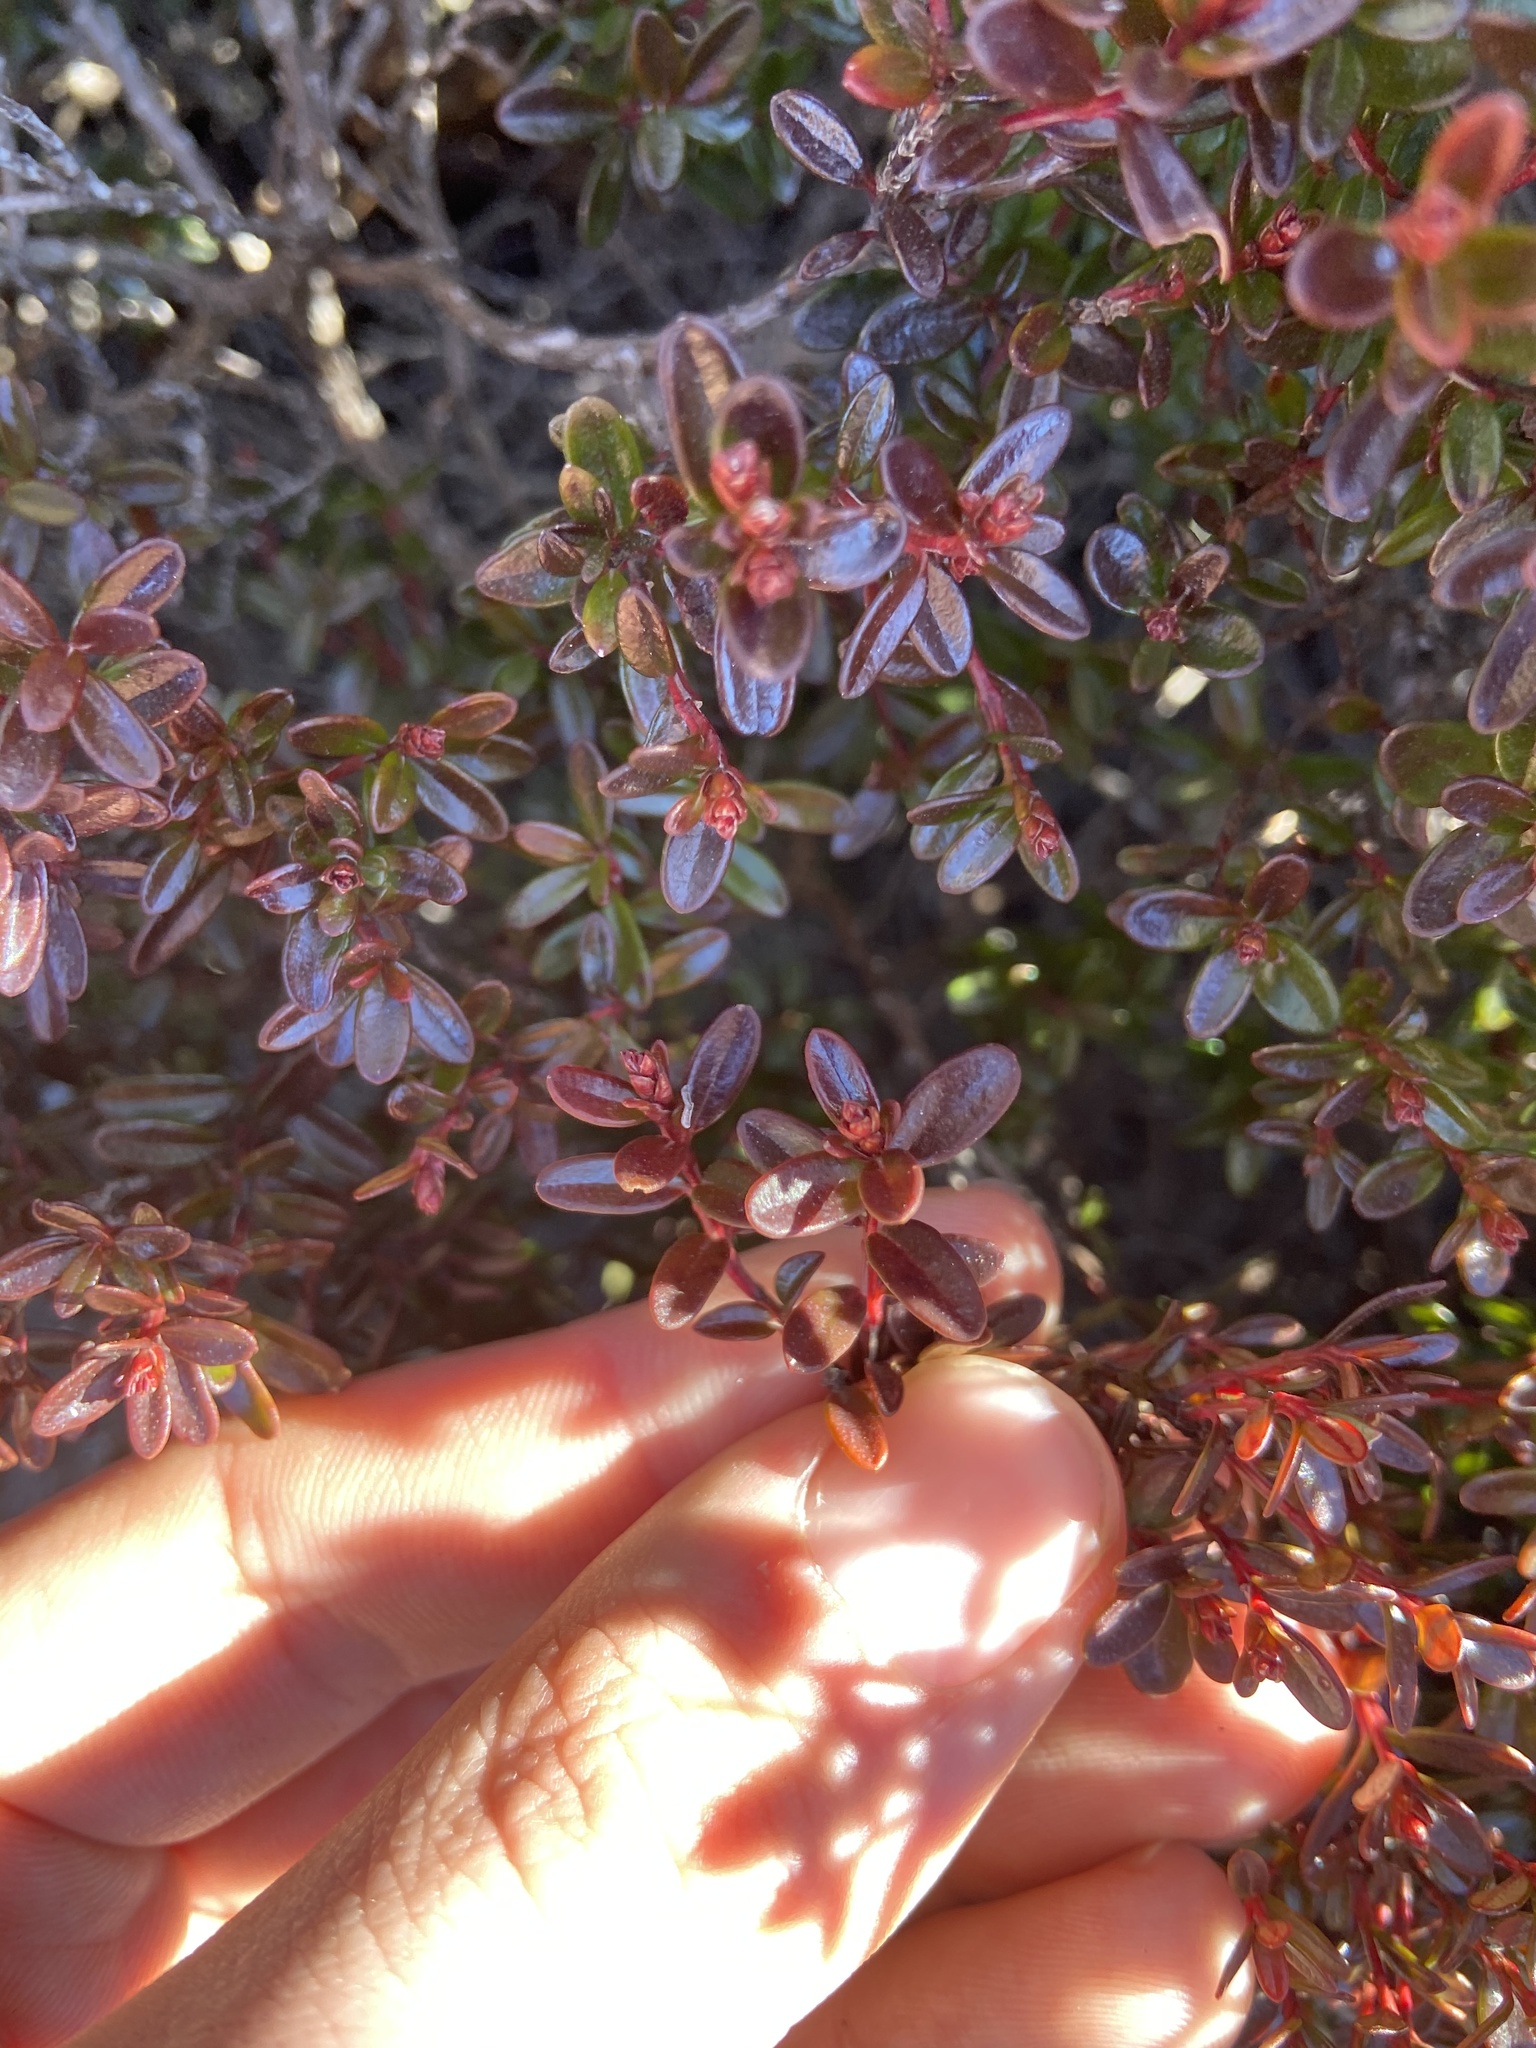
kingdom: Plantae
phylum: Tracheophyta
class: Magnoliopsida
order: Ericales
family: Ericaceae
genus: Kalmia
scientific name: Kalmia buxifolia
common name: Sandmyrtle
